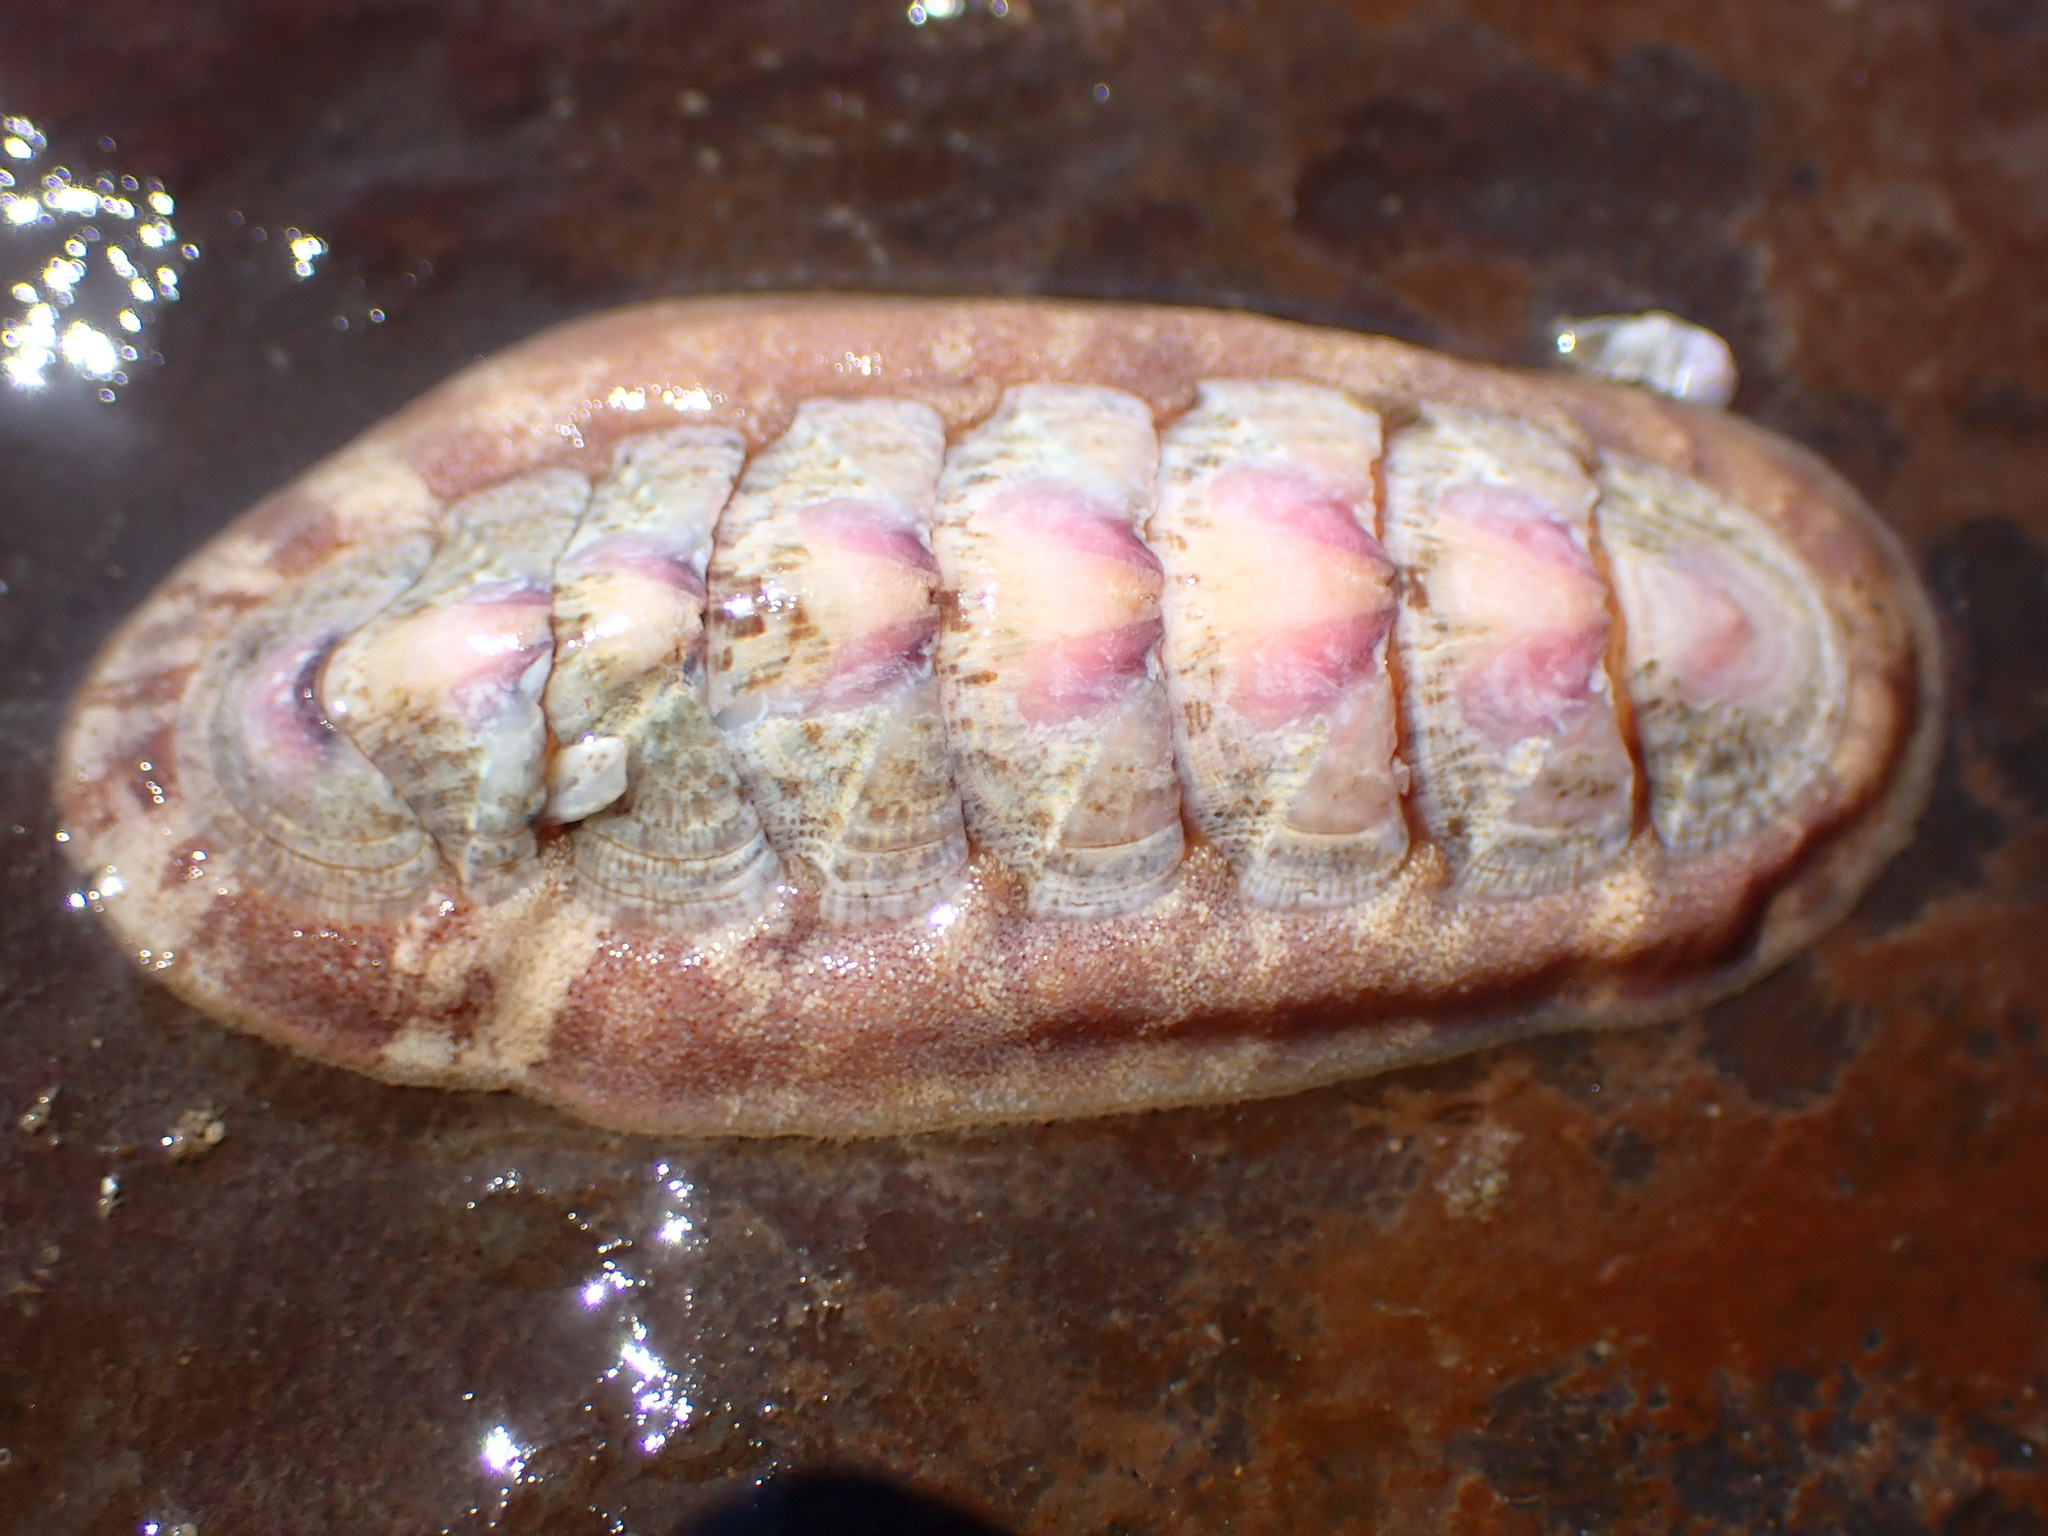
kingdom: Animalia
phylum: Mollusca
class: Polyplacophora
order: Chitonida
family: Ischnochitonidae
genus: Stenoplax
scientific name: Stenoplax heathiana
